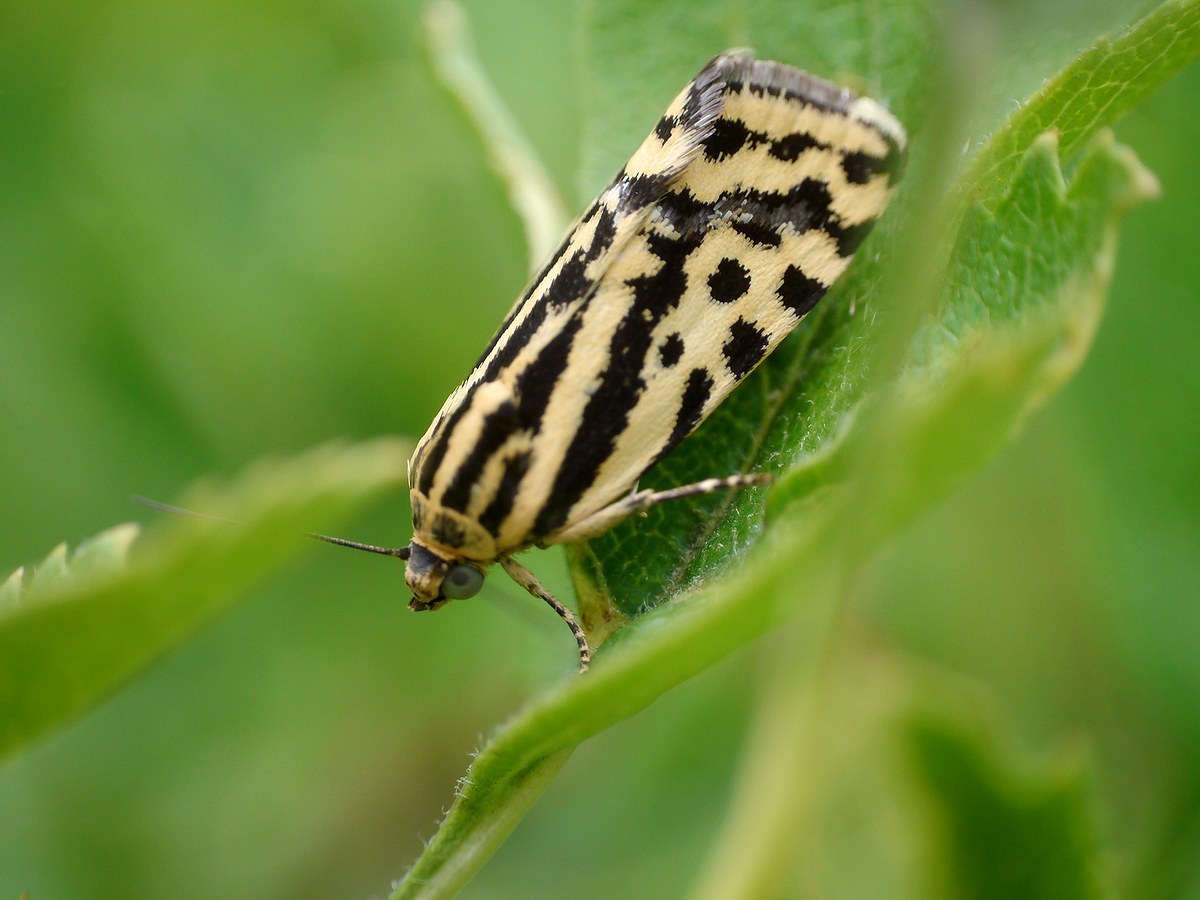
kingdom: Animalia
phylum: Arthropoda
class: Insecta
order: Lepidoptera
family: Noctuidae
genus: Acontia
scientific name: Acontia trabealis
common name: Spotted sulphur
